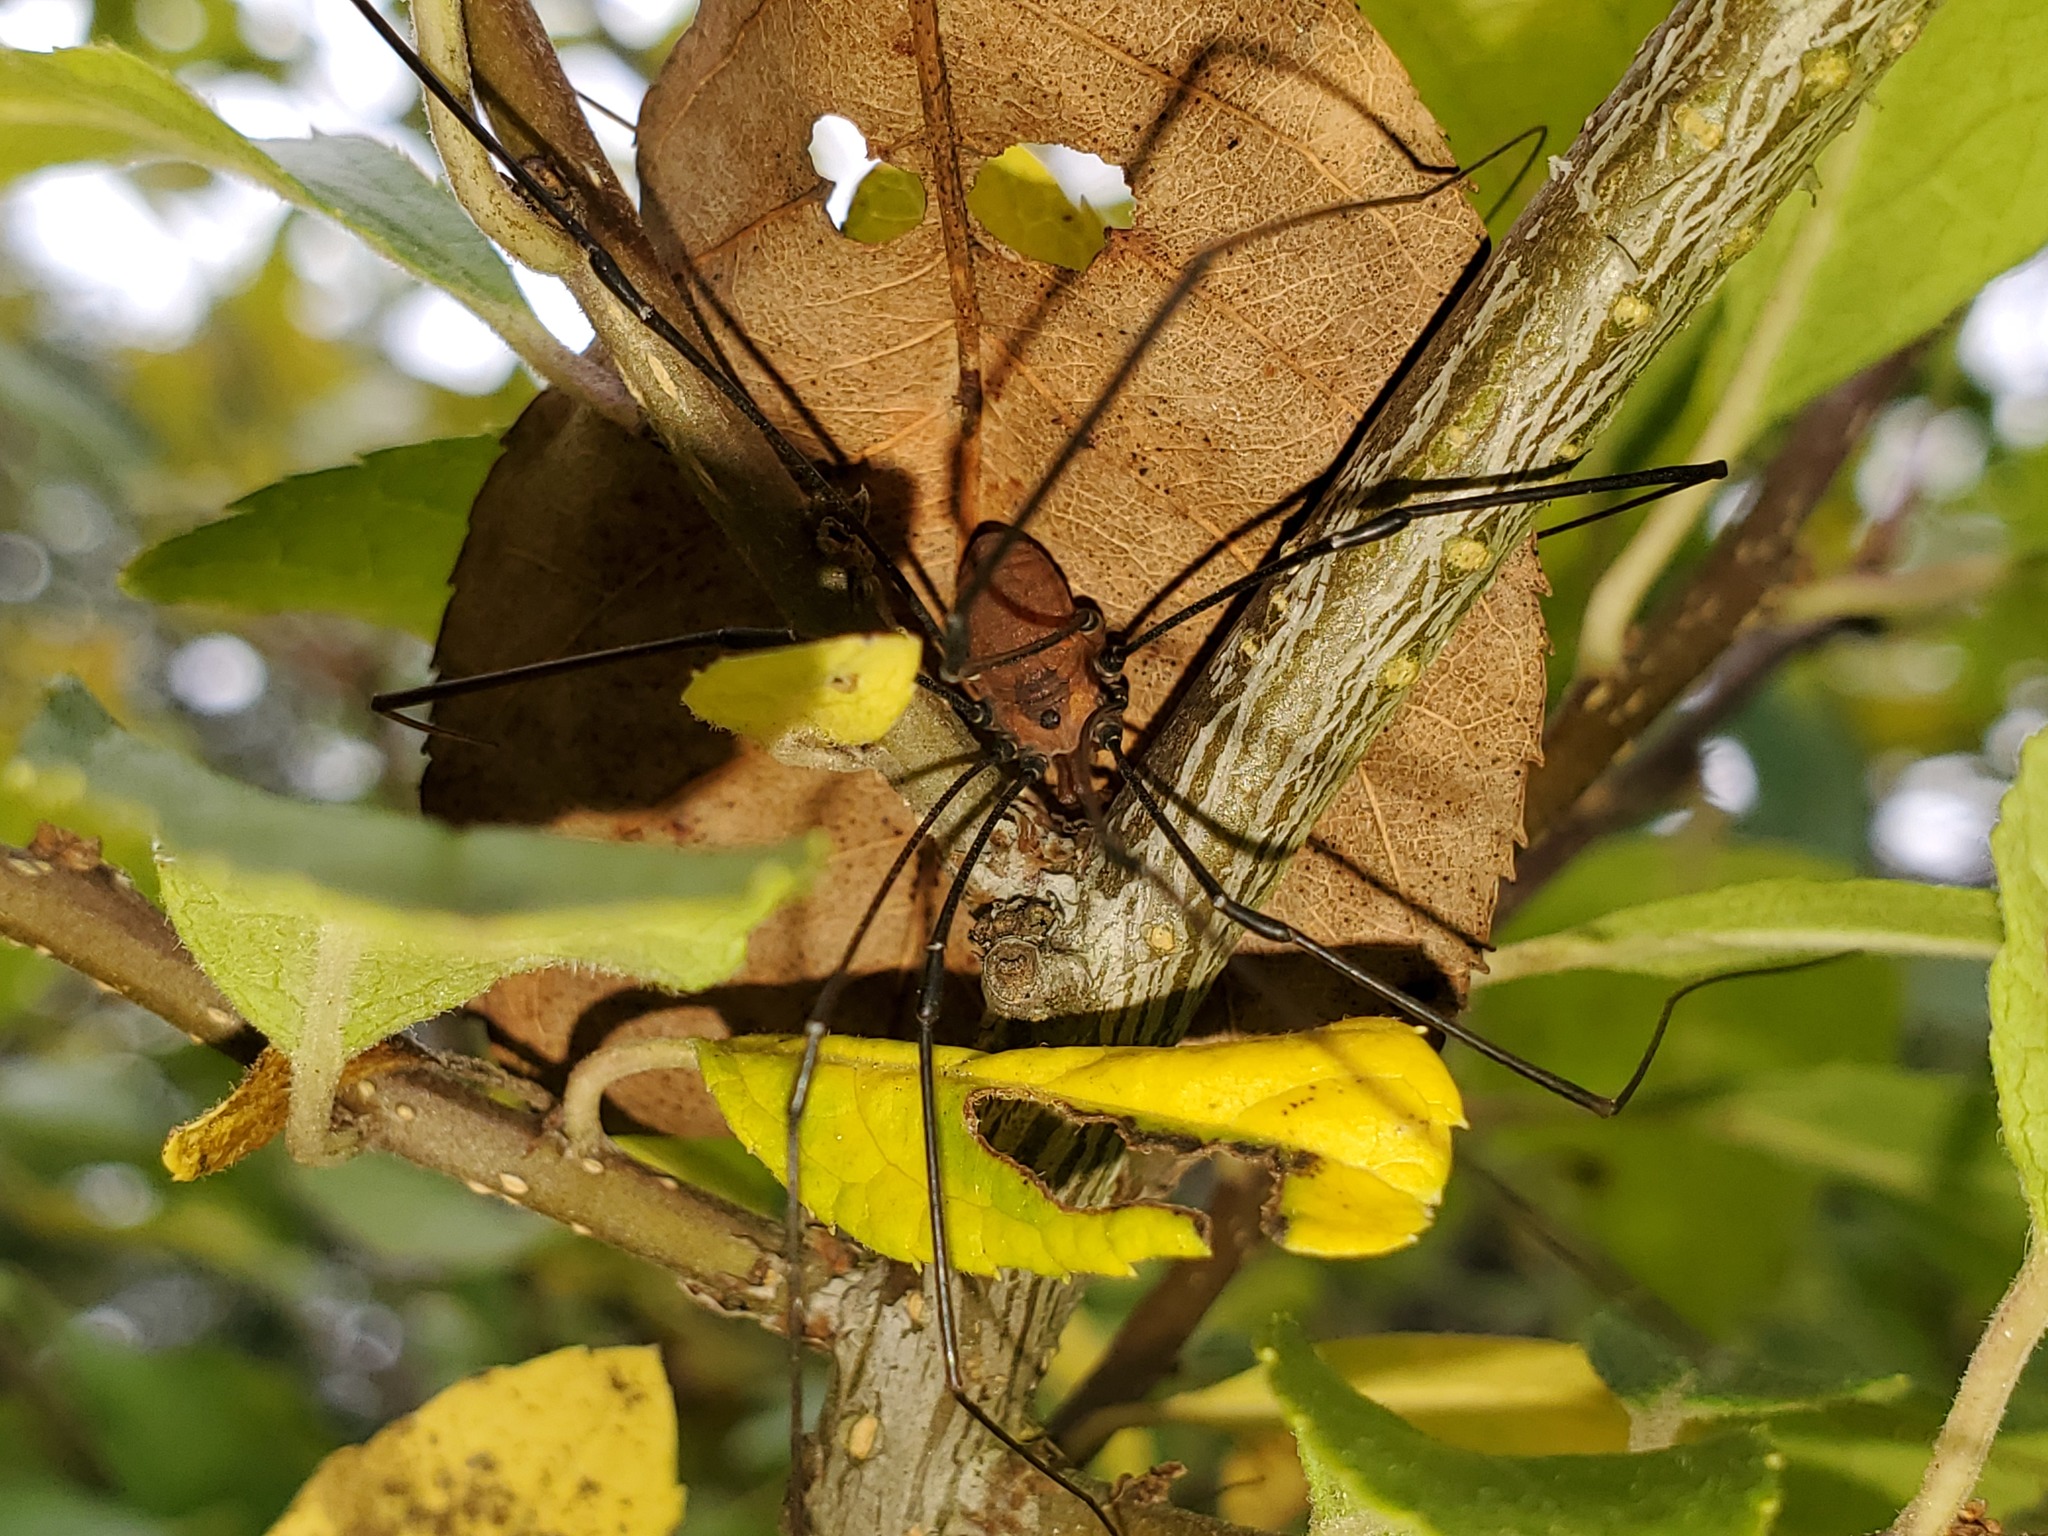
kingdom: Animalia
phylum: Arthropoda
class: Arachnida
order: Opiliones
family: Sclerosomatidae
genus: Leiobunum
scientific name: Leiobunum vittatum
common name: Eastern harvestman
